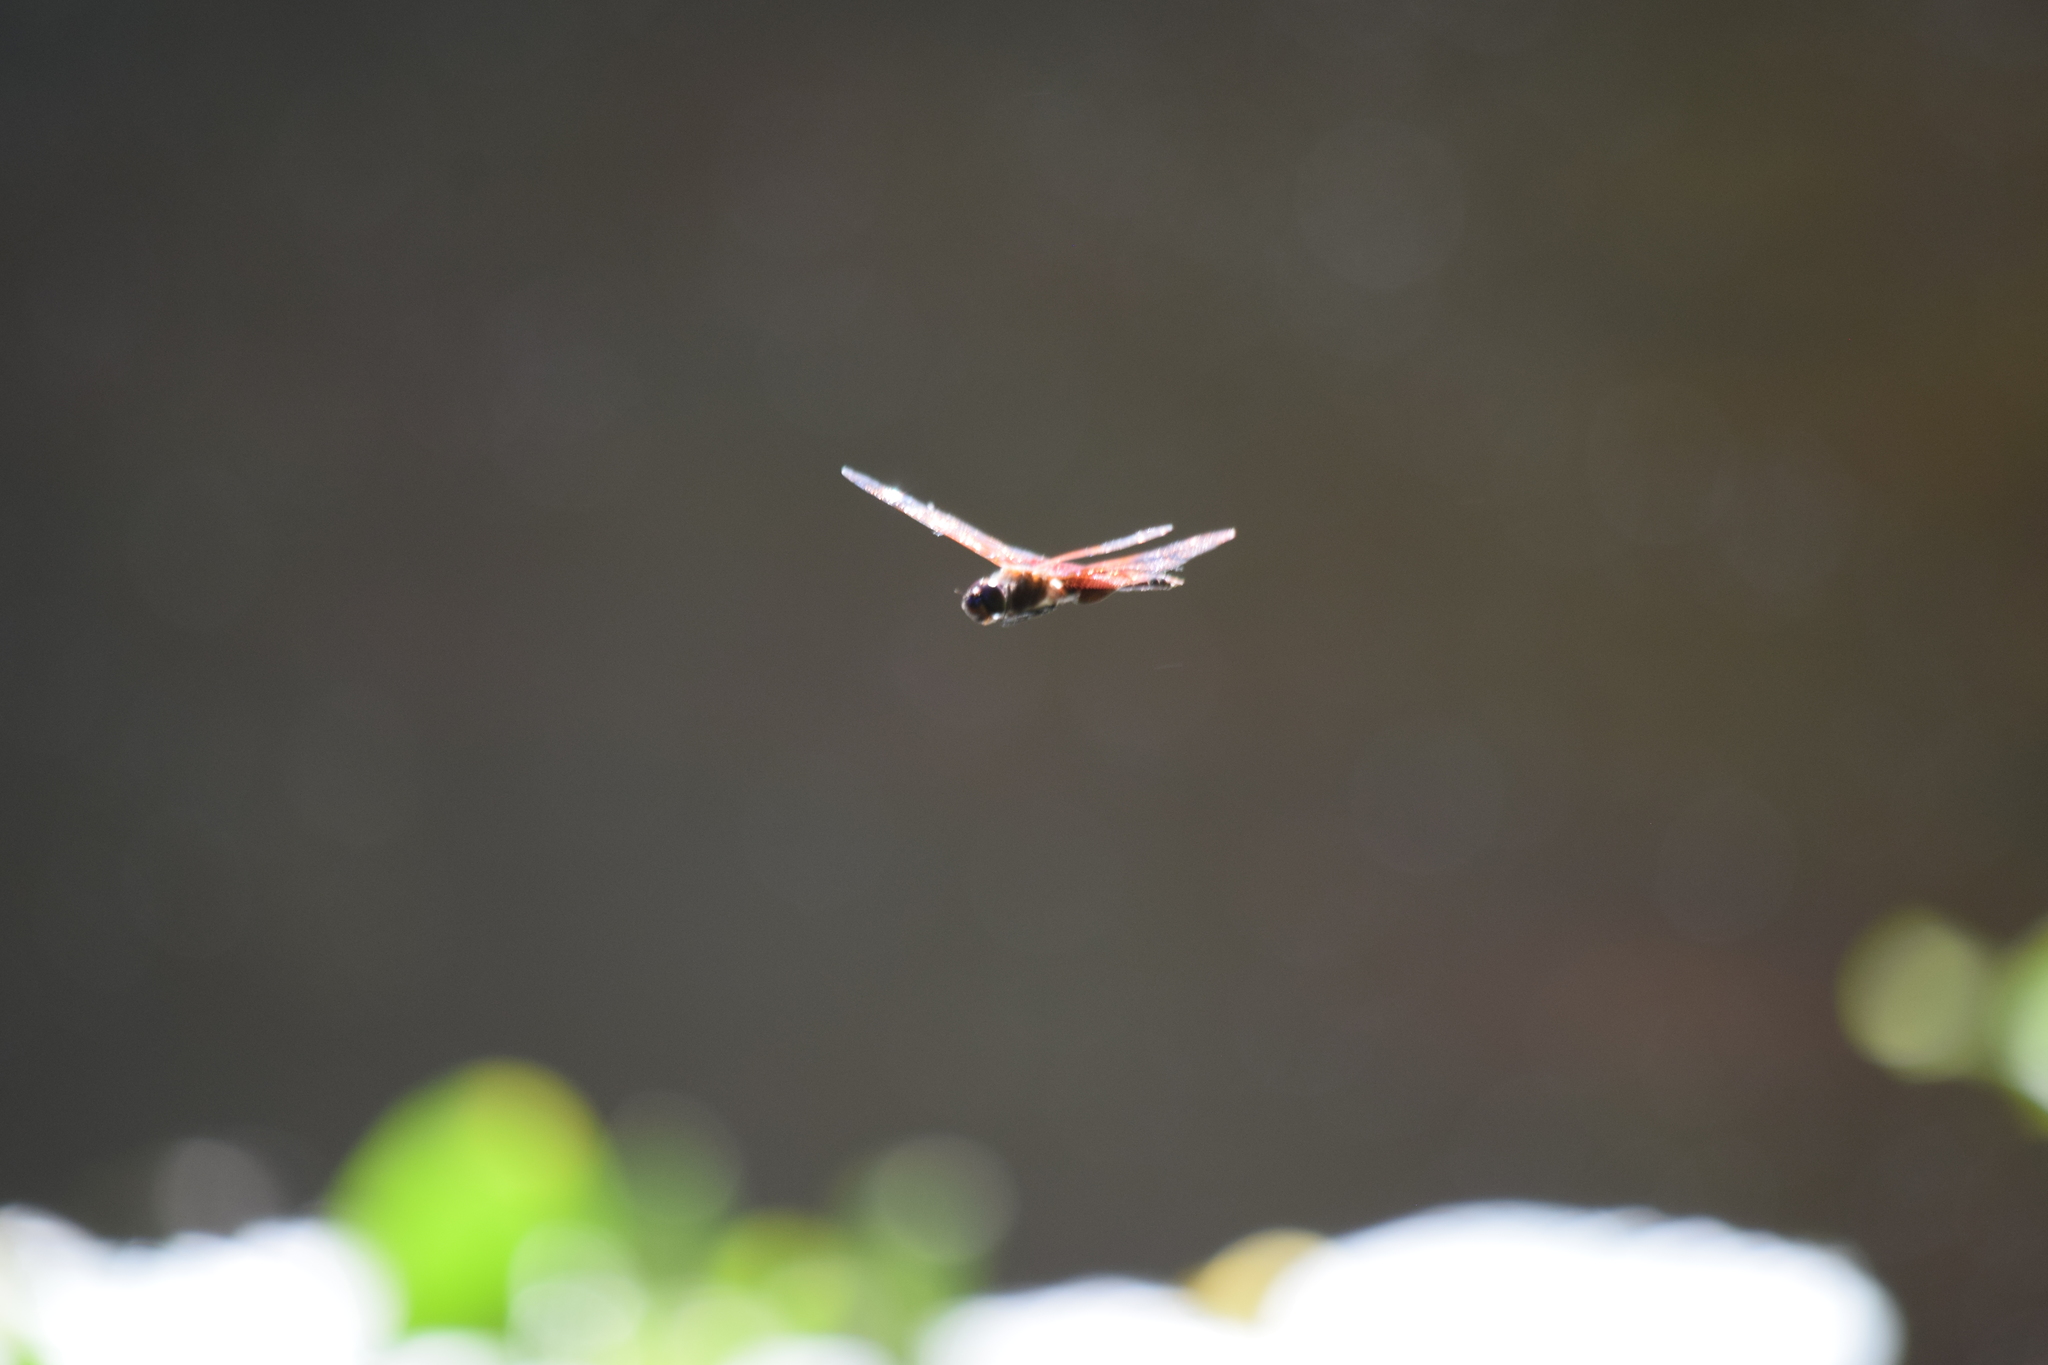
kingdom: Animalia
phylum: Arthropoda
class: Insecta
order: Odonata
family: Libellulidae
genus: Tramea
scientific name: Tramea carolina
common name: Carolina saddlebags
